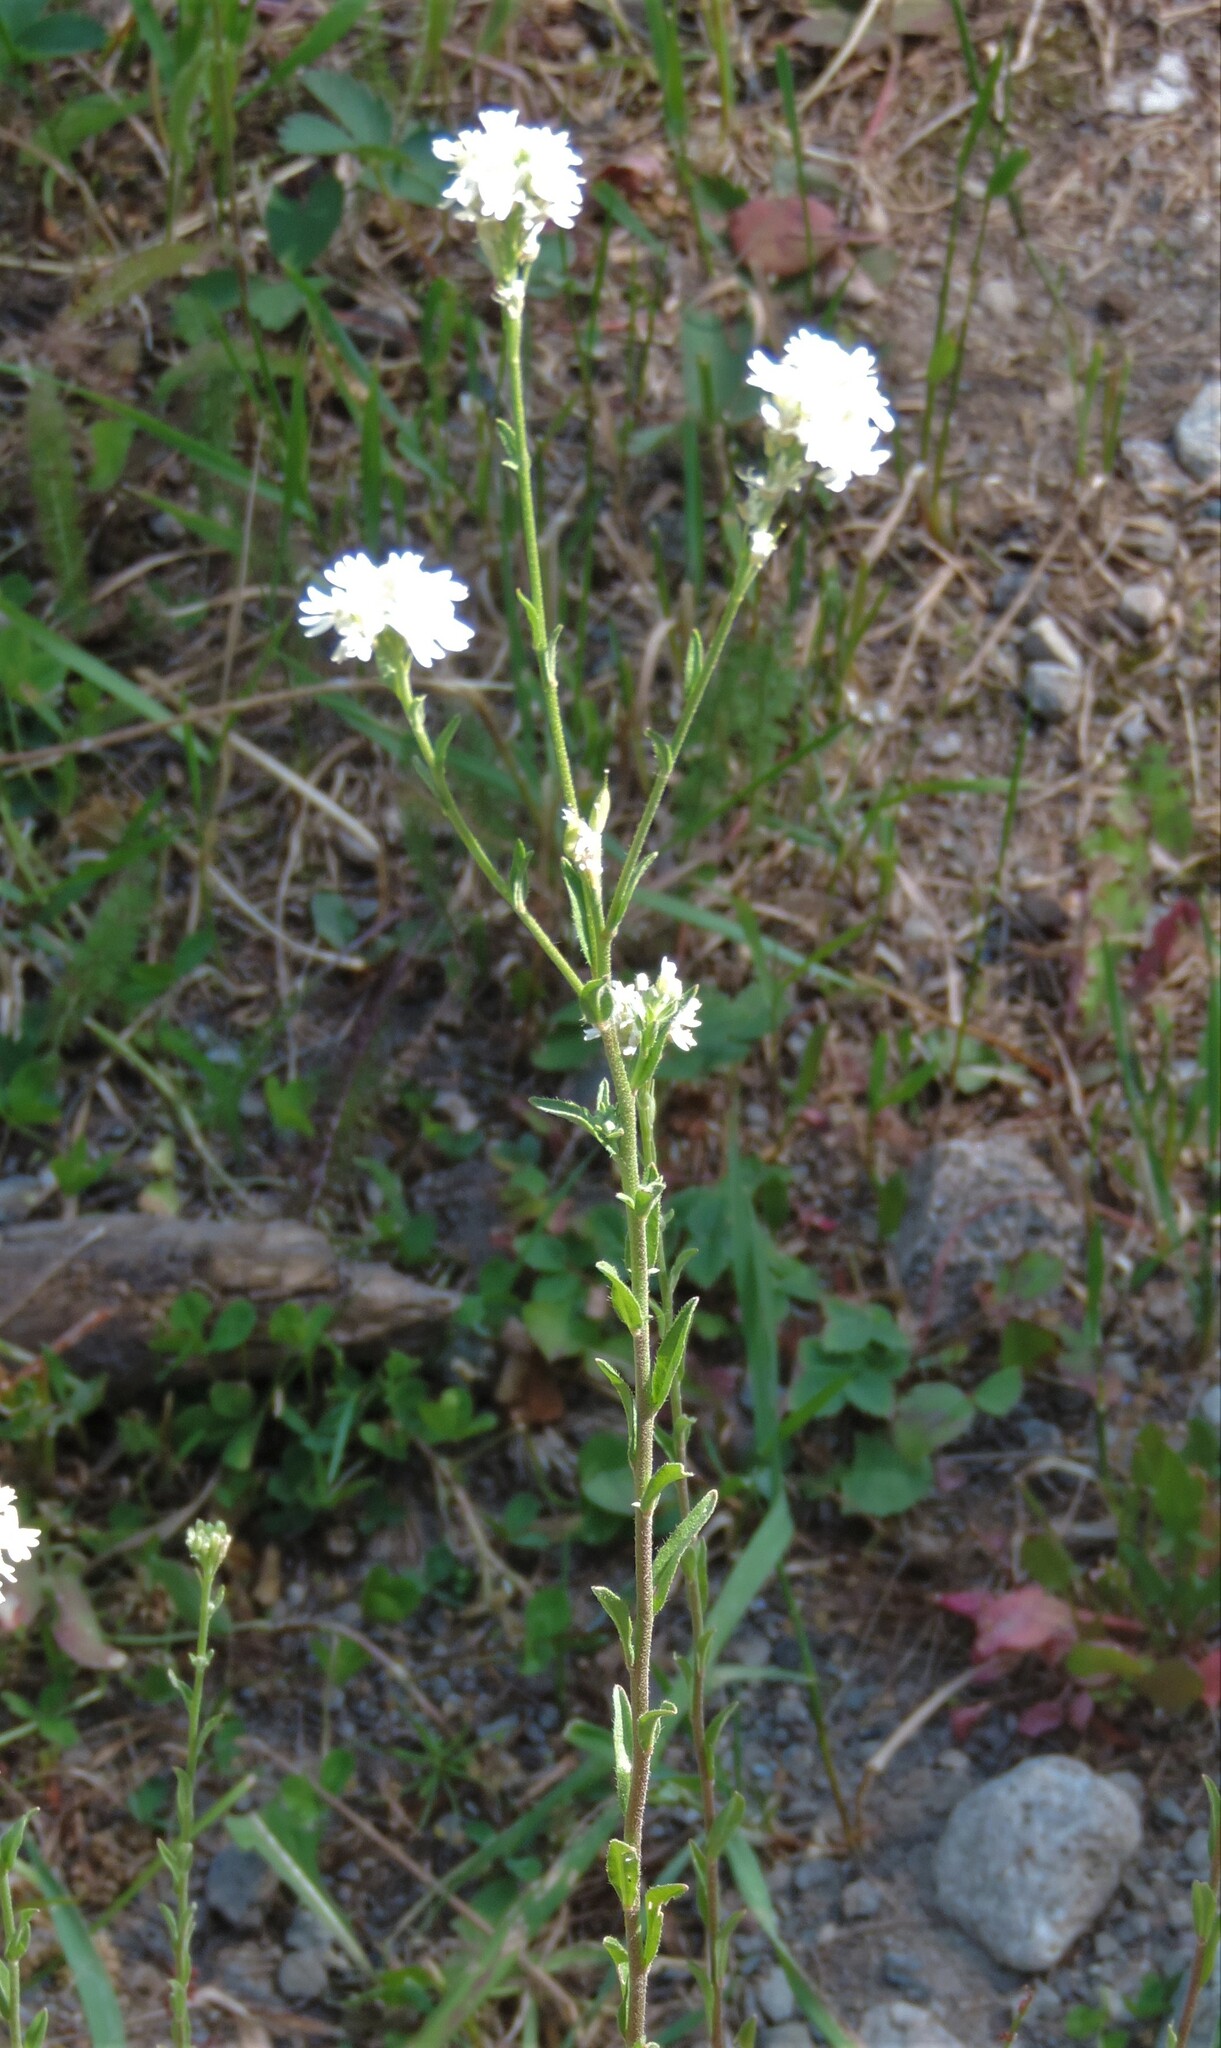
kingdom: Plantae
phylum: Tracheophyta
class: Magnoliopsida
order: Brassicales
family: Brassicaceae
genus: Berteroa
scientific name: Berteroa incana
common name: Hoary alison
